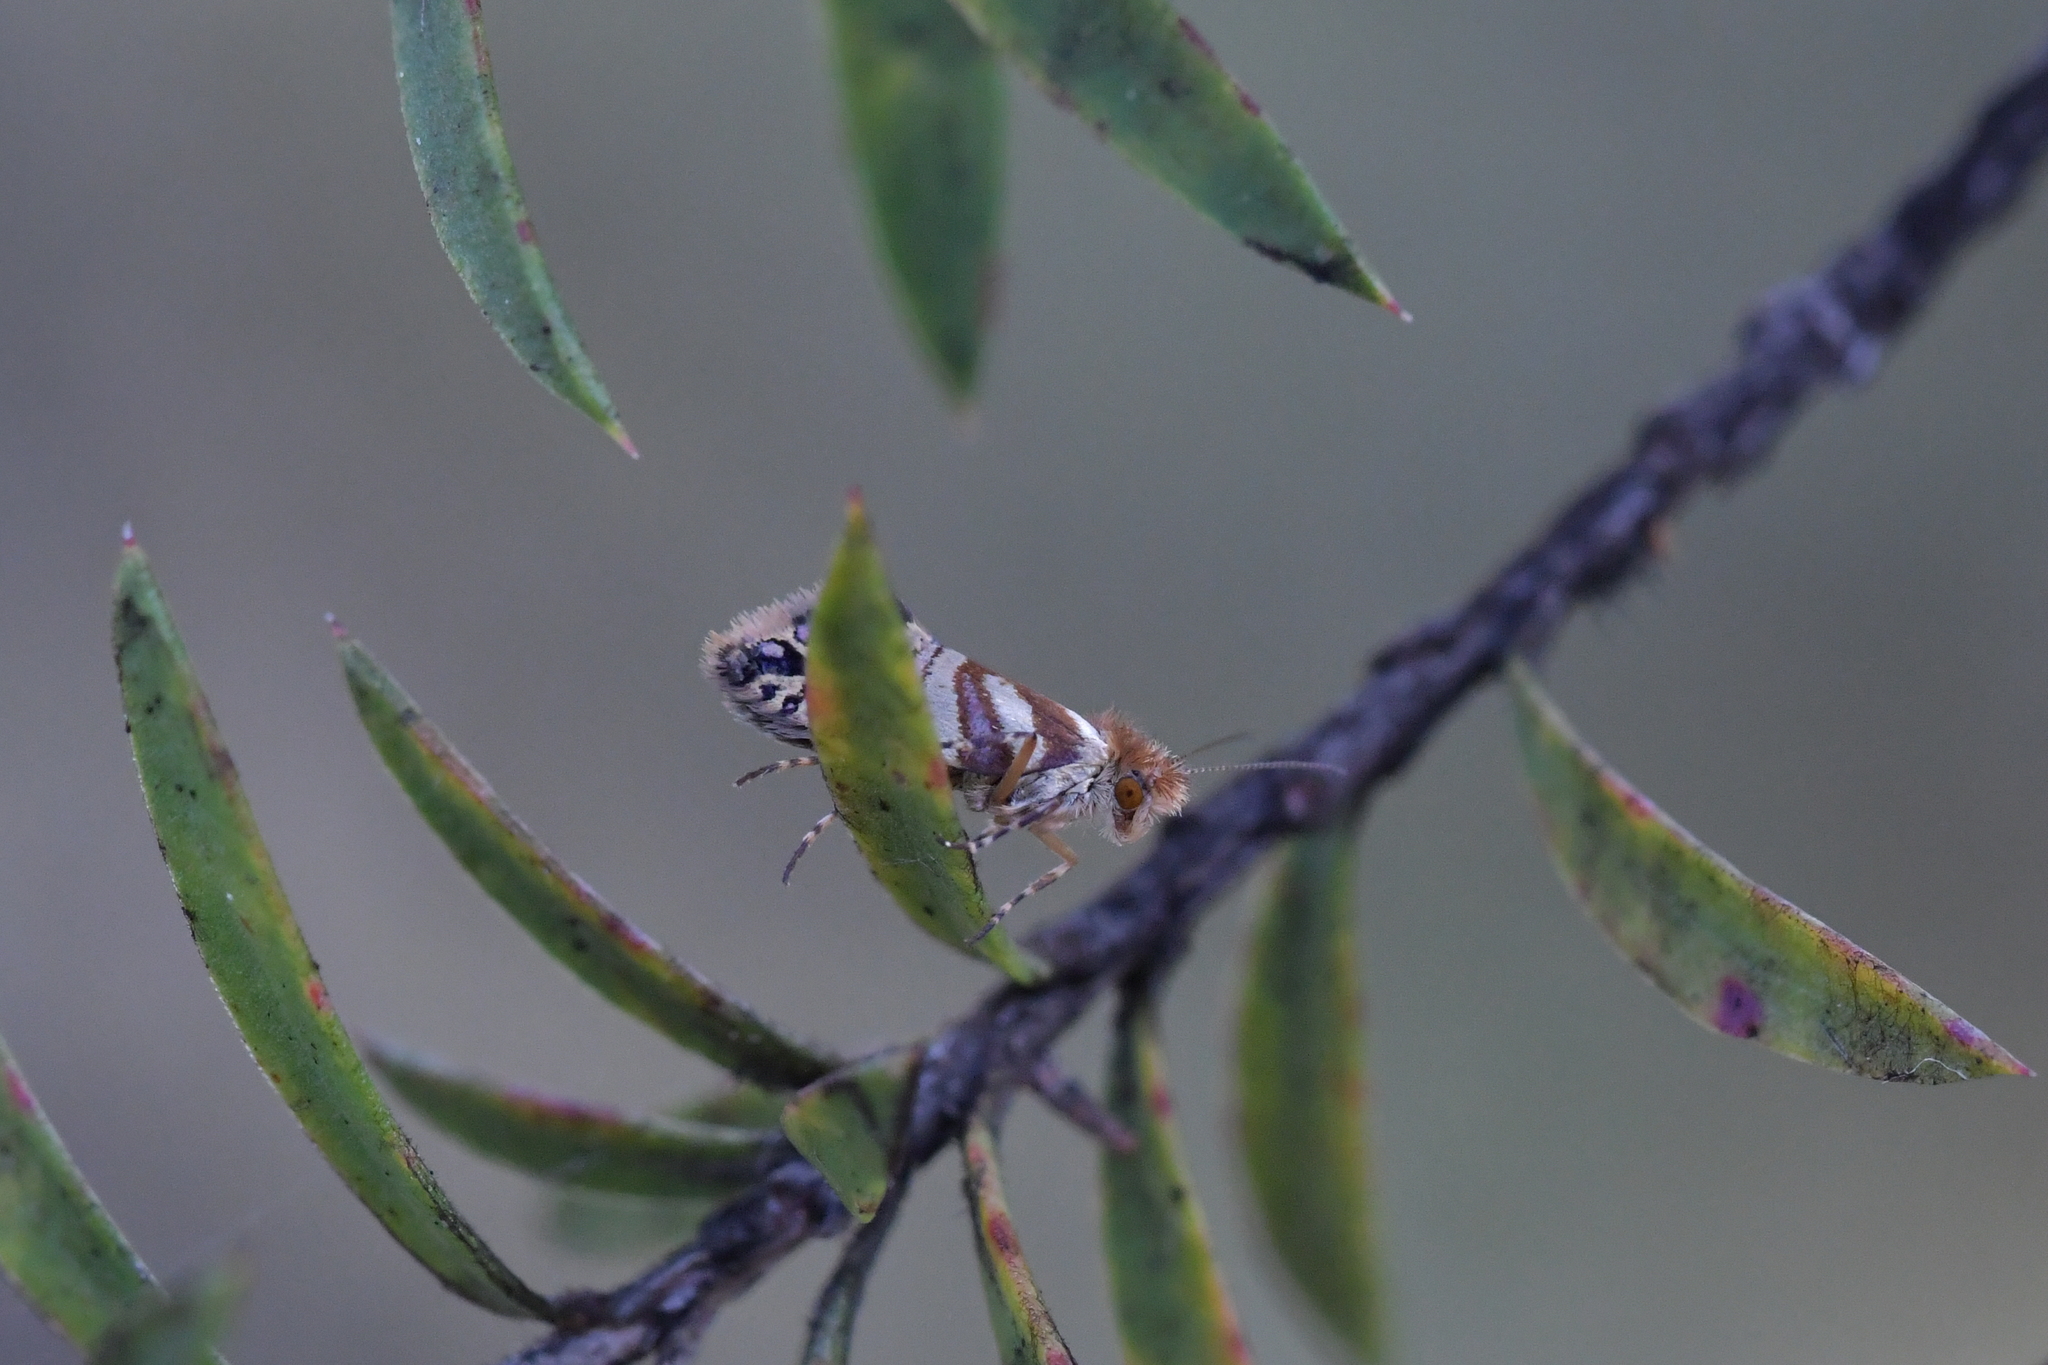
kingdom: Animalia
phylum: Arthropoda
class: Insecta
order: Lepidoptera
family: Micropterigidae
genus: Sabatinca
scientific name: Sabatinca doroxena
